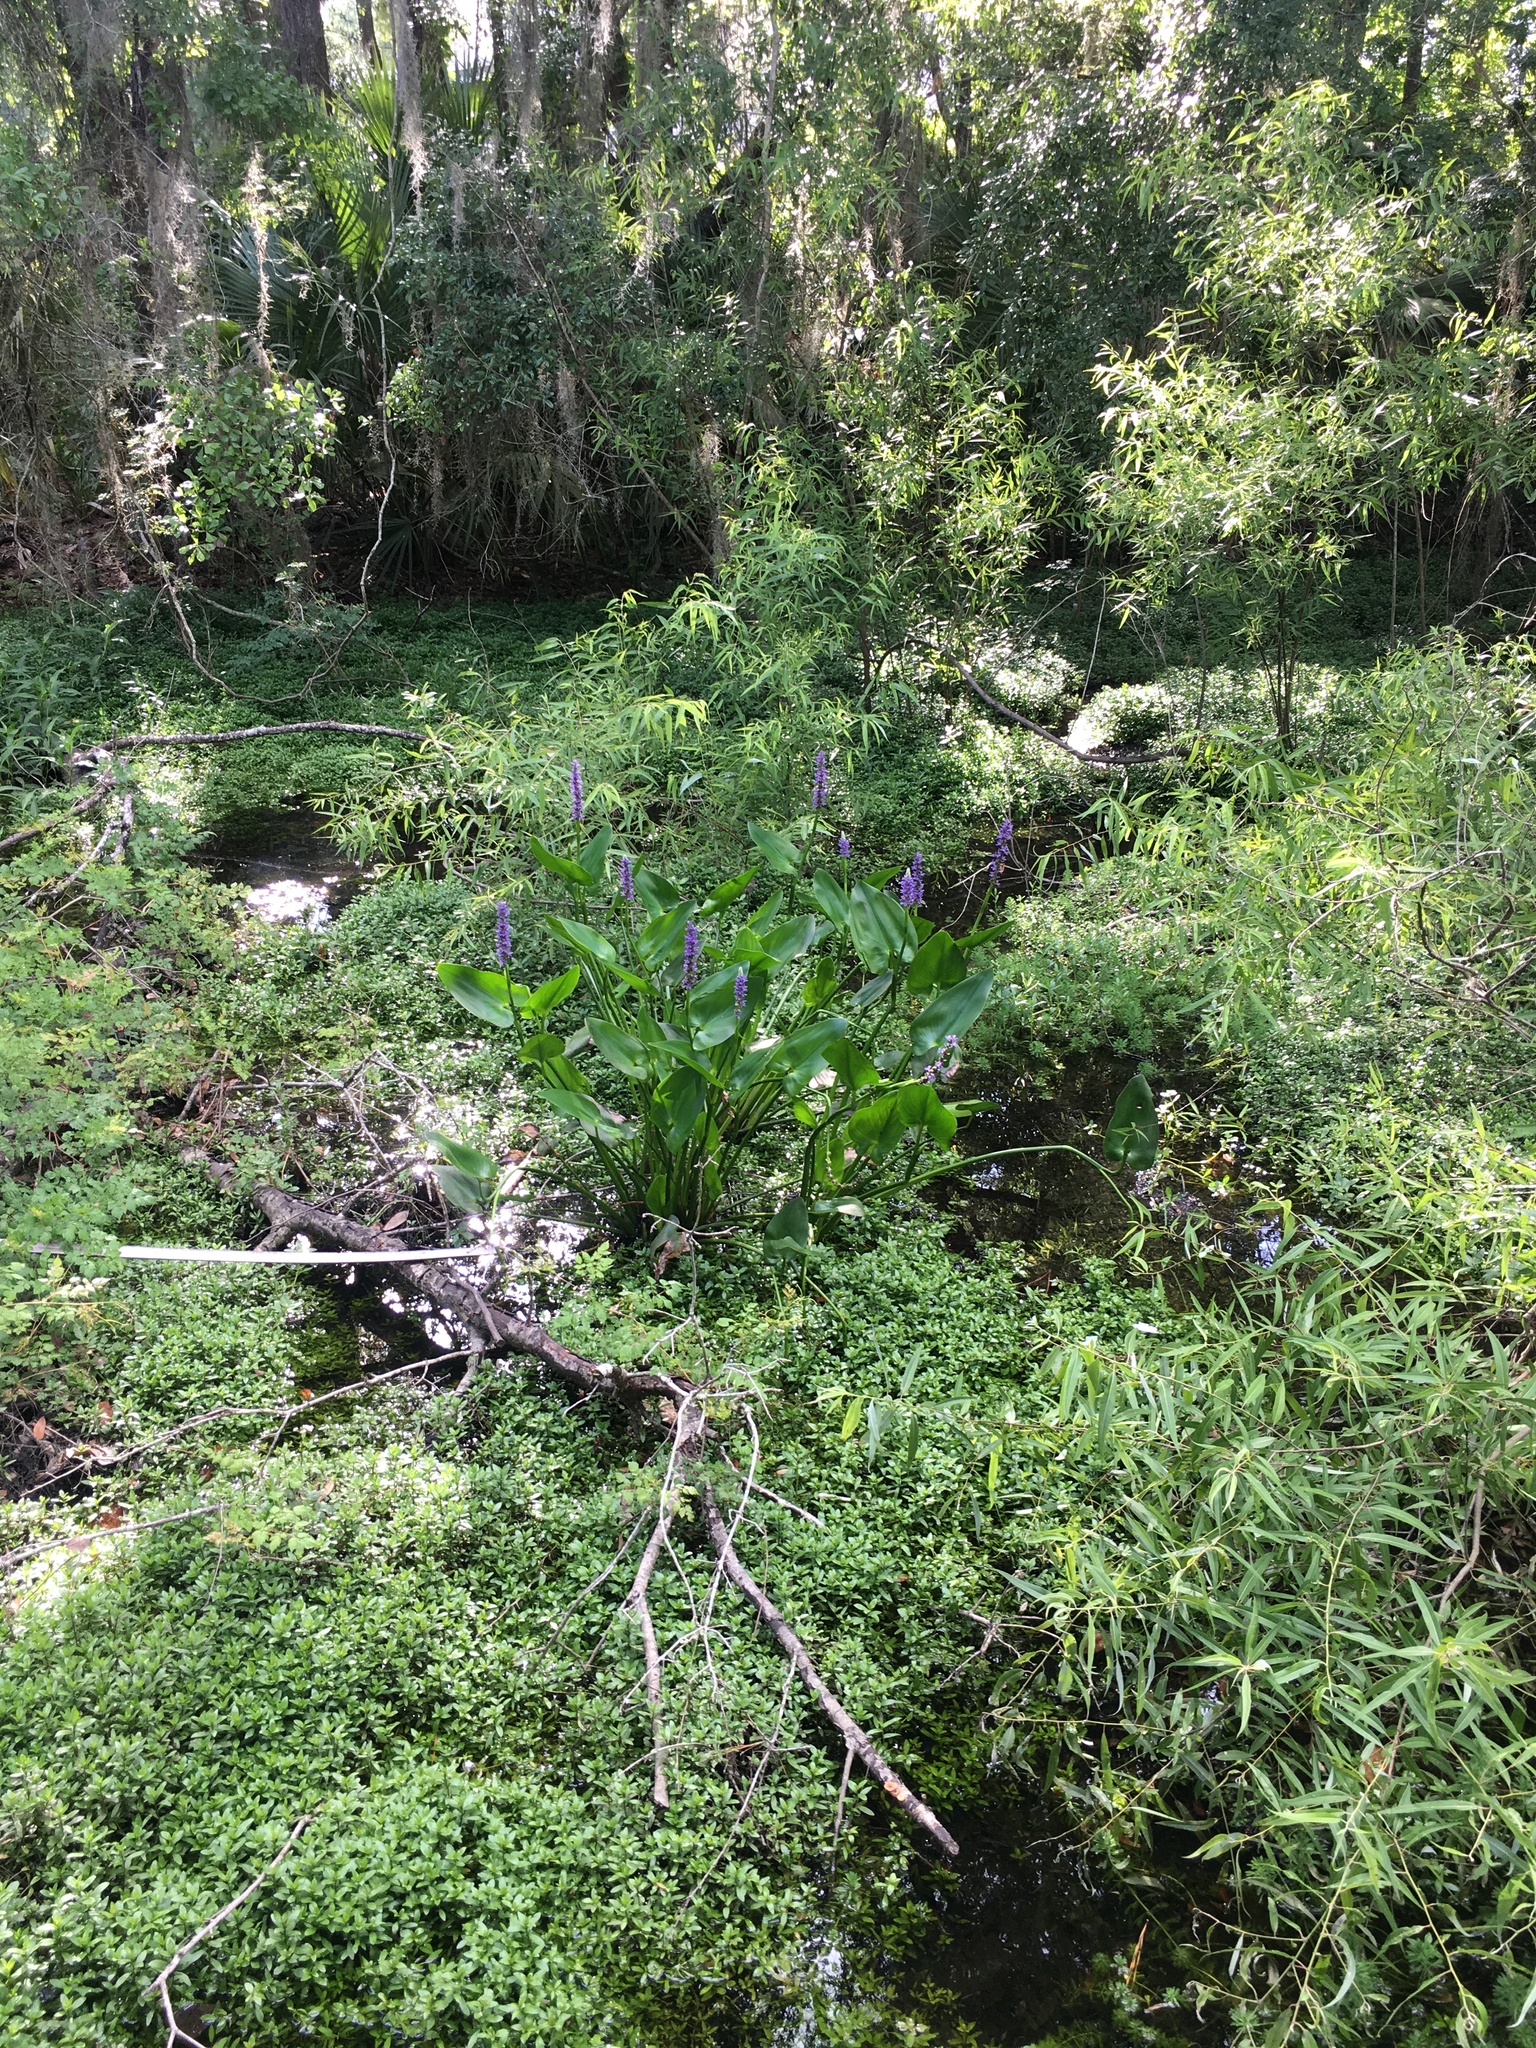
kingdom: Plantae
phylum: Tracheophyta
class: Liliopsida
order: Commelinales
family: Pontederiaceae
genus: Pontederia
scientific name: Pontederia cordata
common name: Pickerelweed
